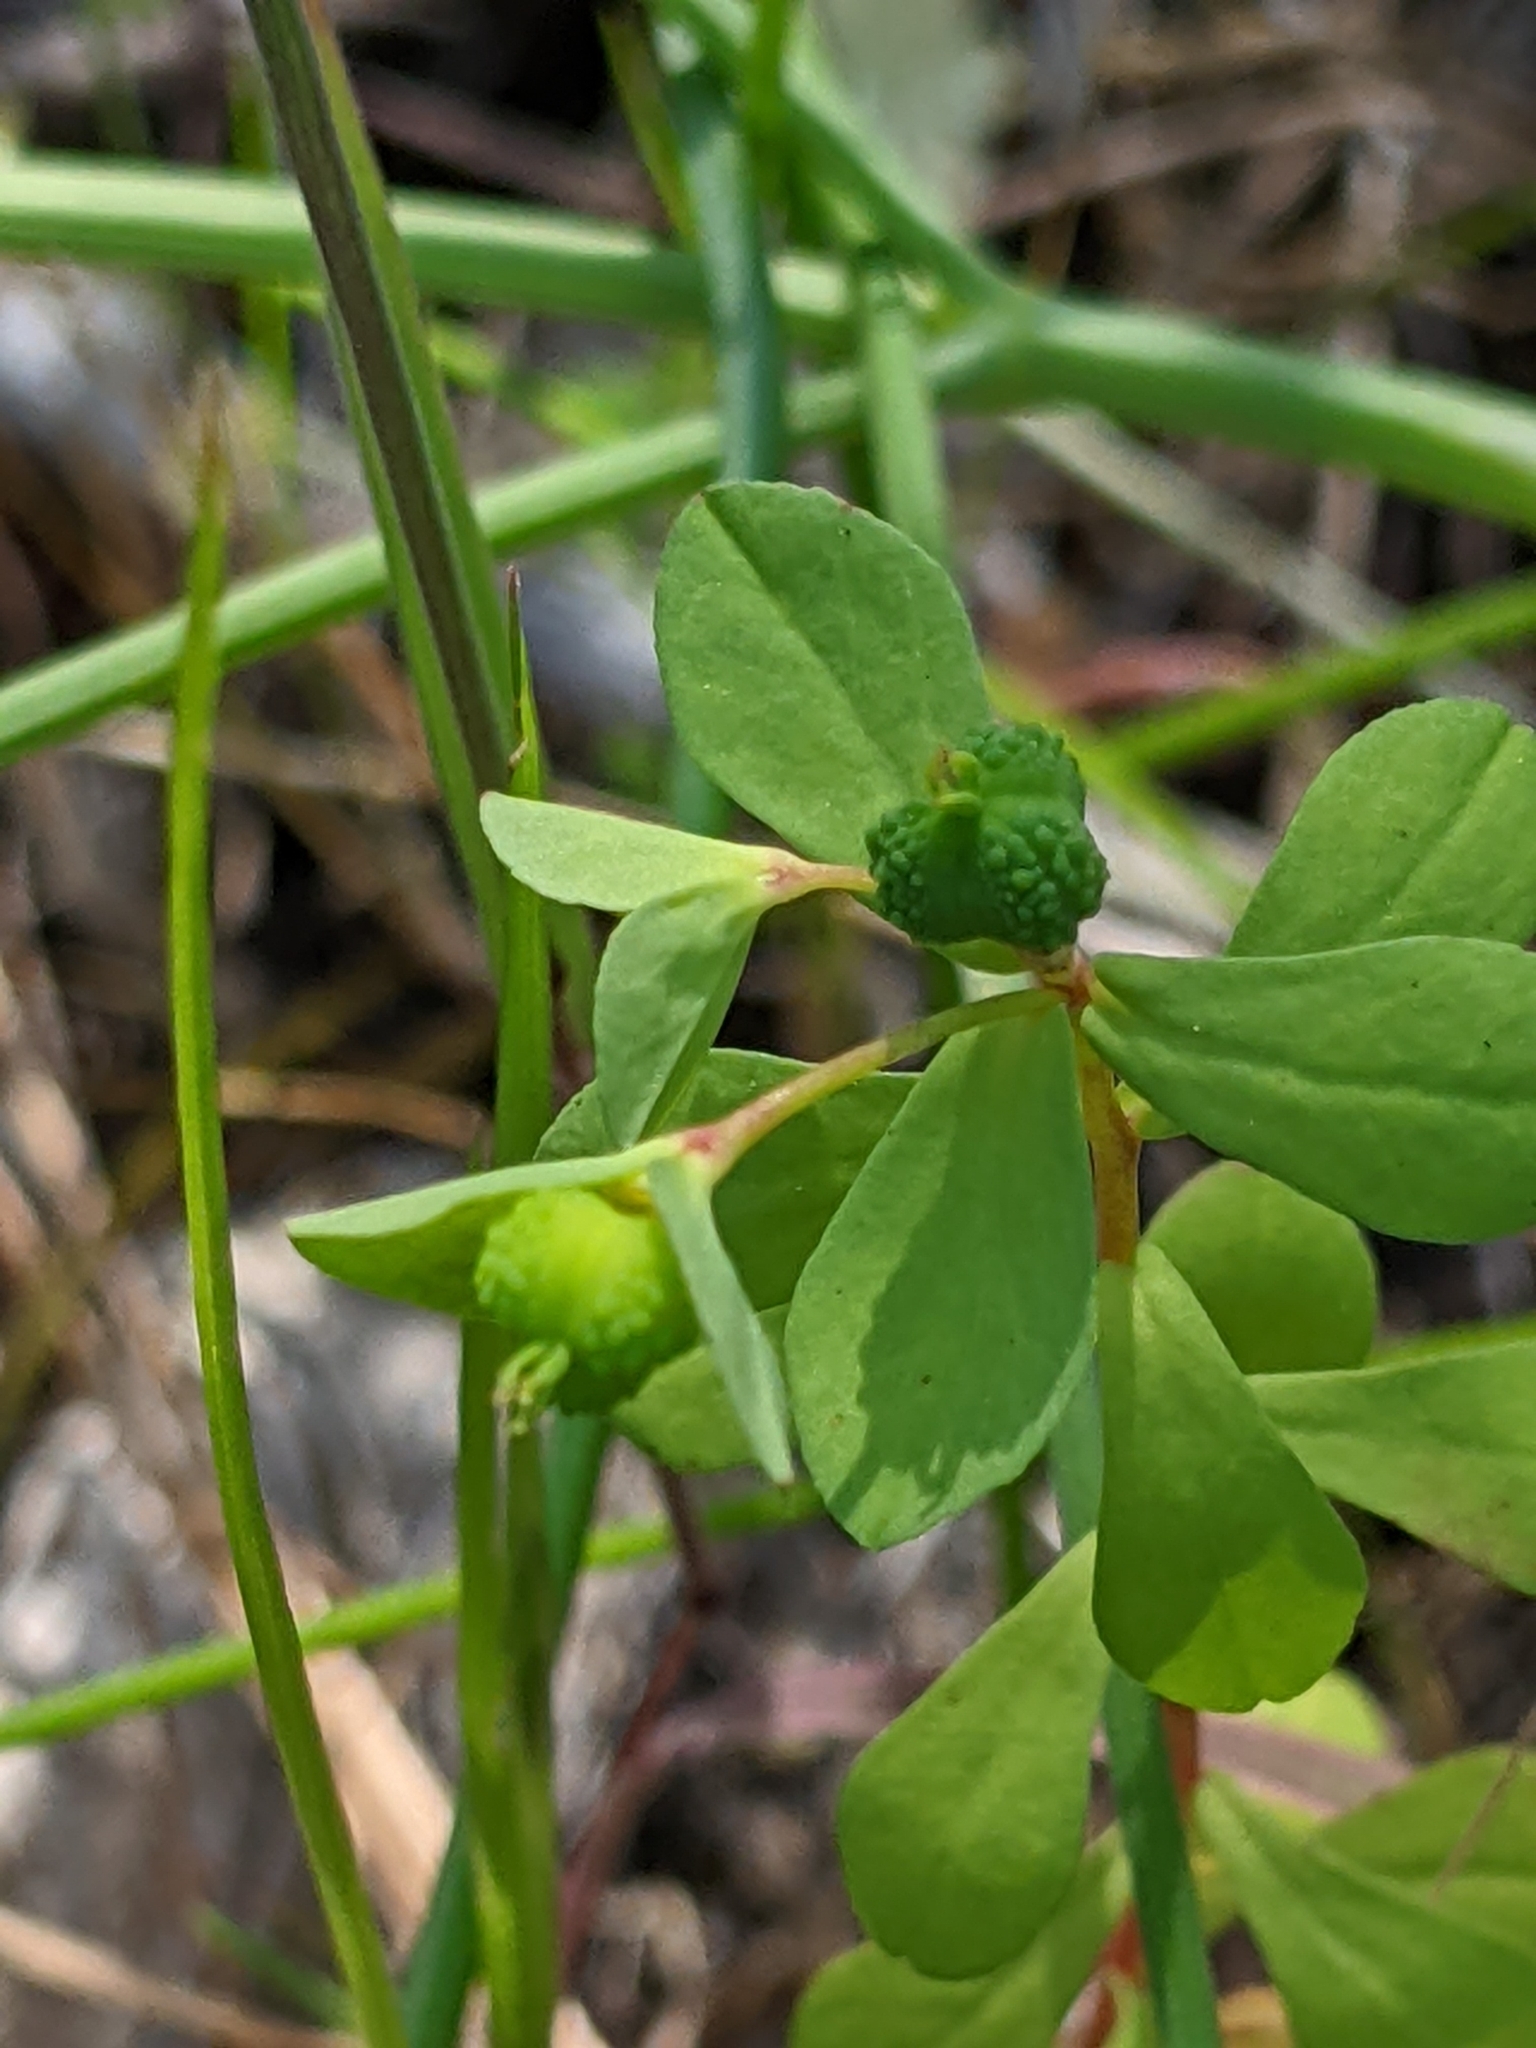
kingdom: Plantae
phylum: Tracheophyta
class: Magnoliopsida
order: Malpighiales
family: Euphorbiaceae
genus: Euphorbia
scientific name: Euphorbia spathulata
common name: Blunt spurge
